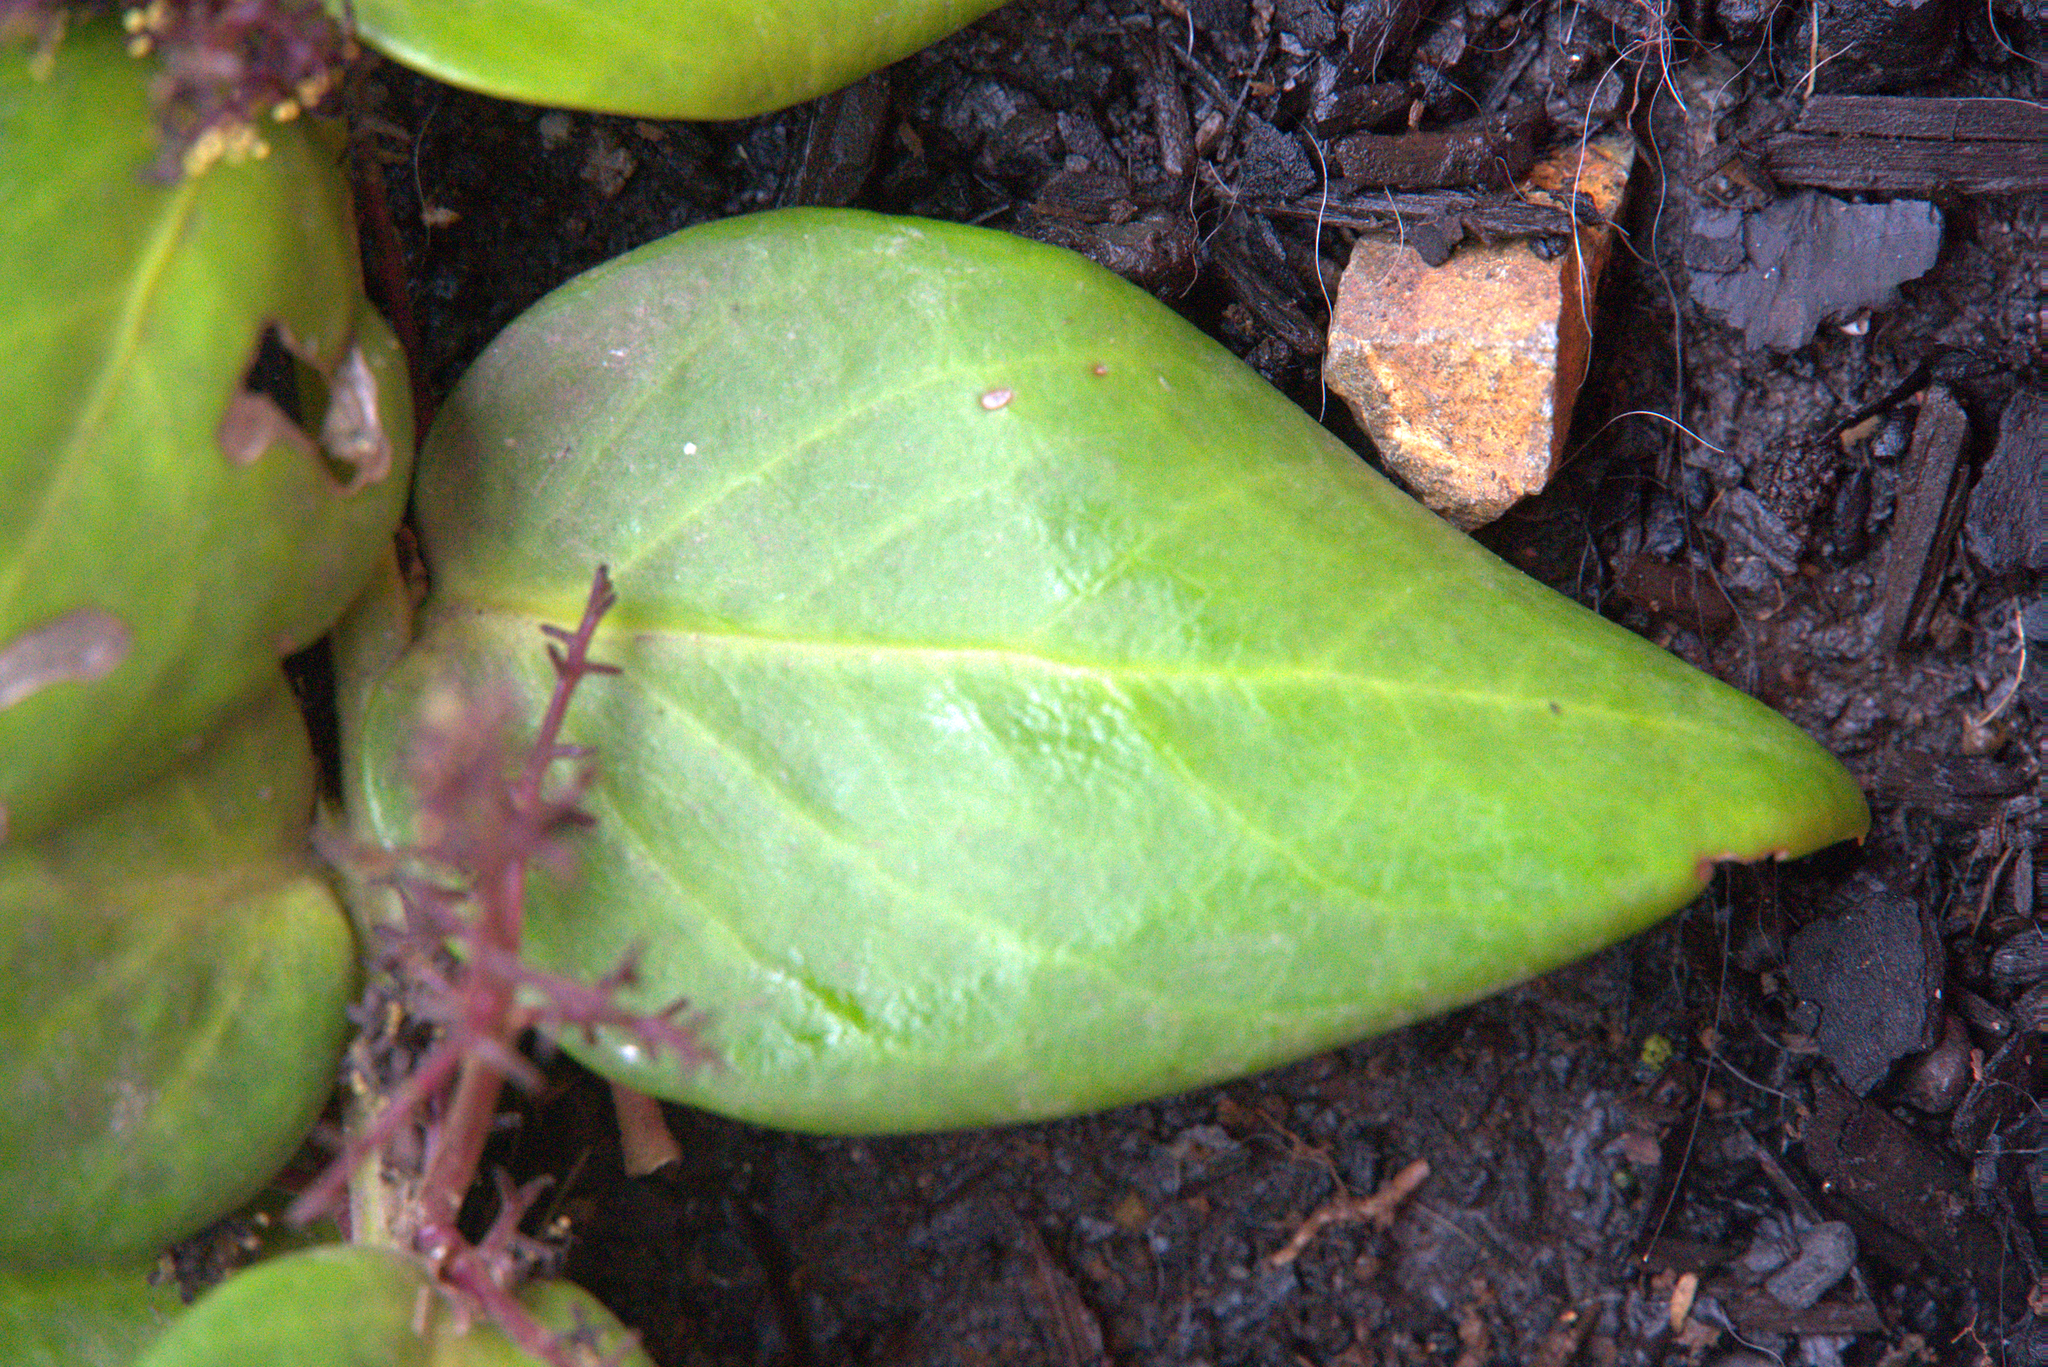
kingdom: Plantae
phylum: Tracheophyta
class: Magnoliopsida
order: Apiales
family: Griseliniaceae
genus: Griselinia
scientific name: Griselinia scandens
